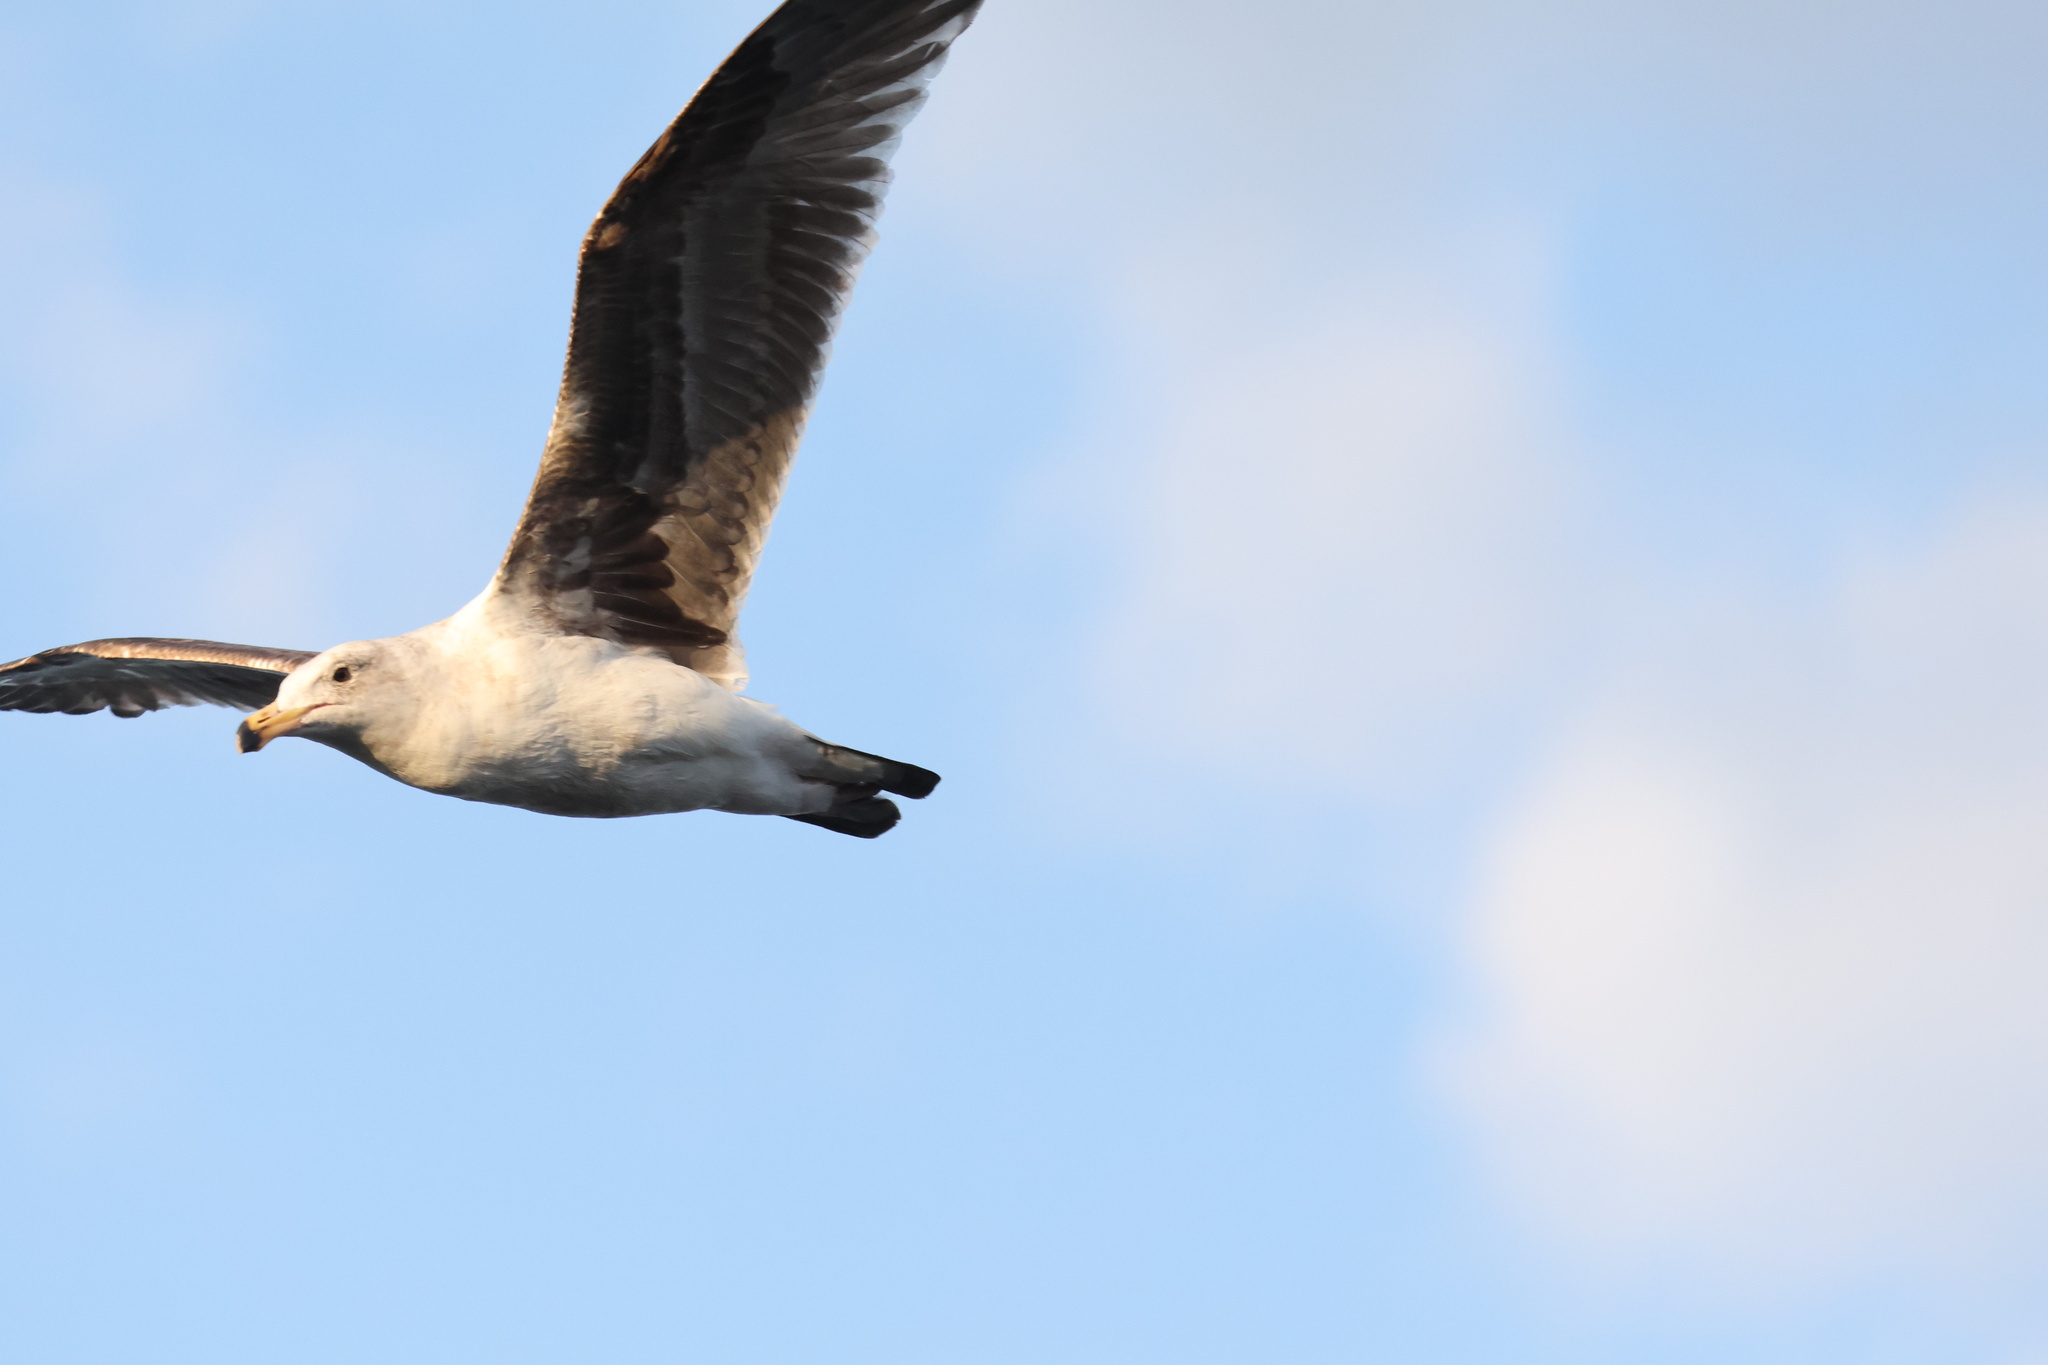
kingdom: Animalia
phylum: Chordata
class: Aves
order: Charadriiformes
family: Laridae
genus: Larus
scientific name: Larus occidentalis
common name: Western gull
